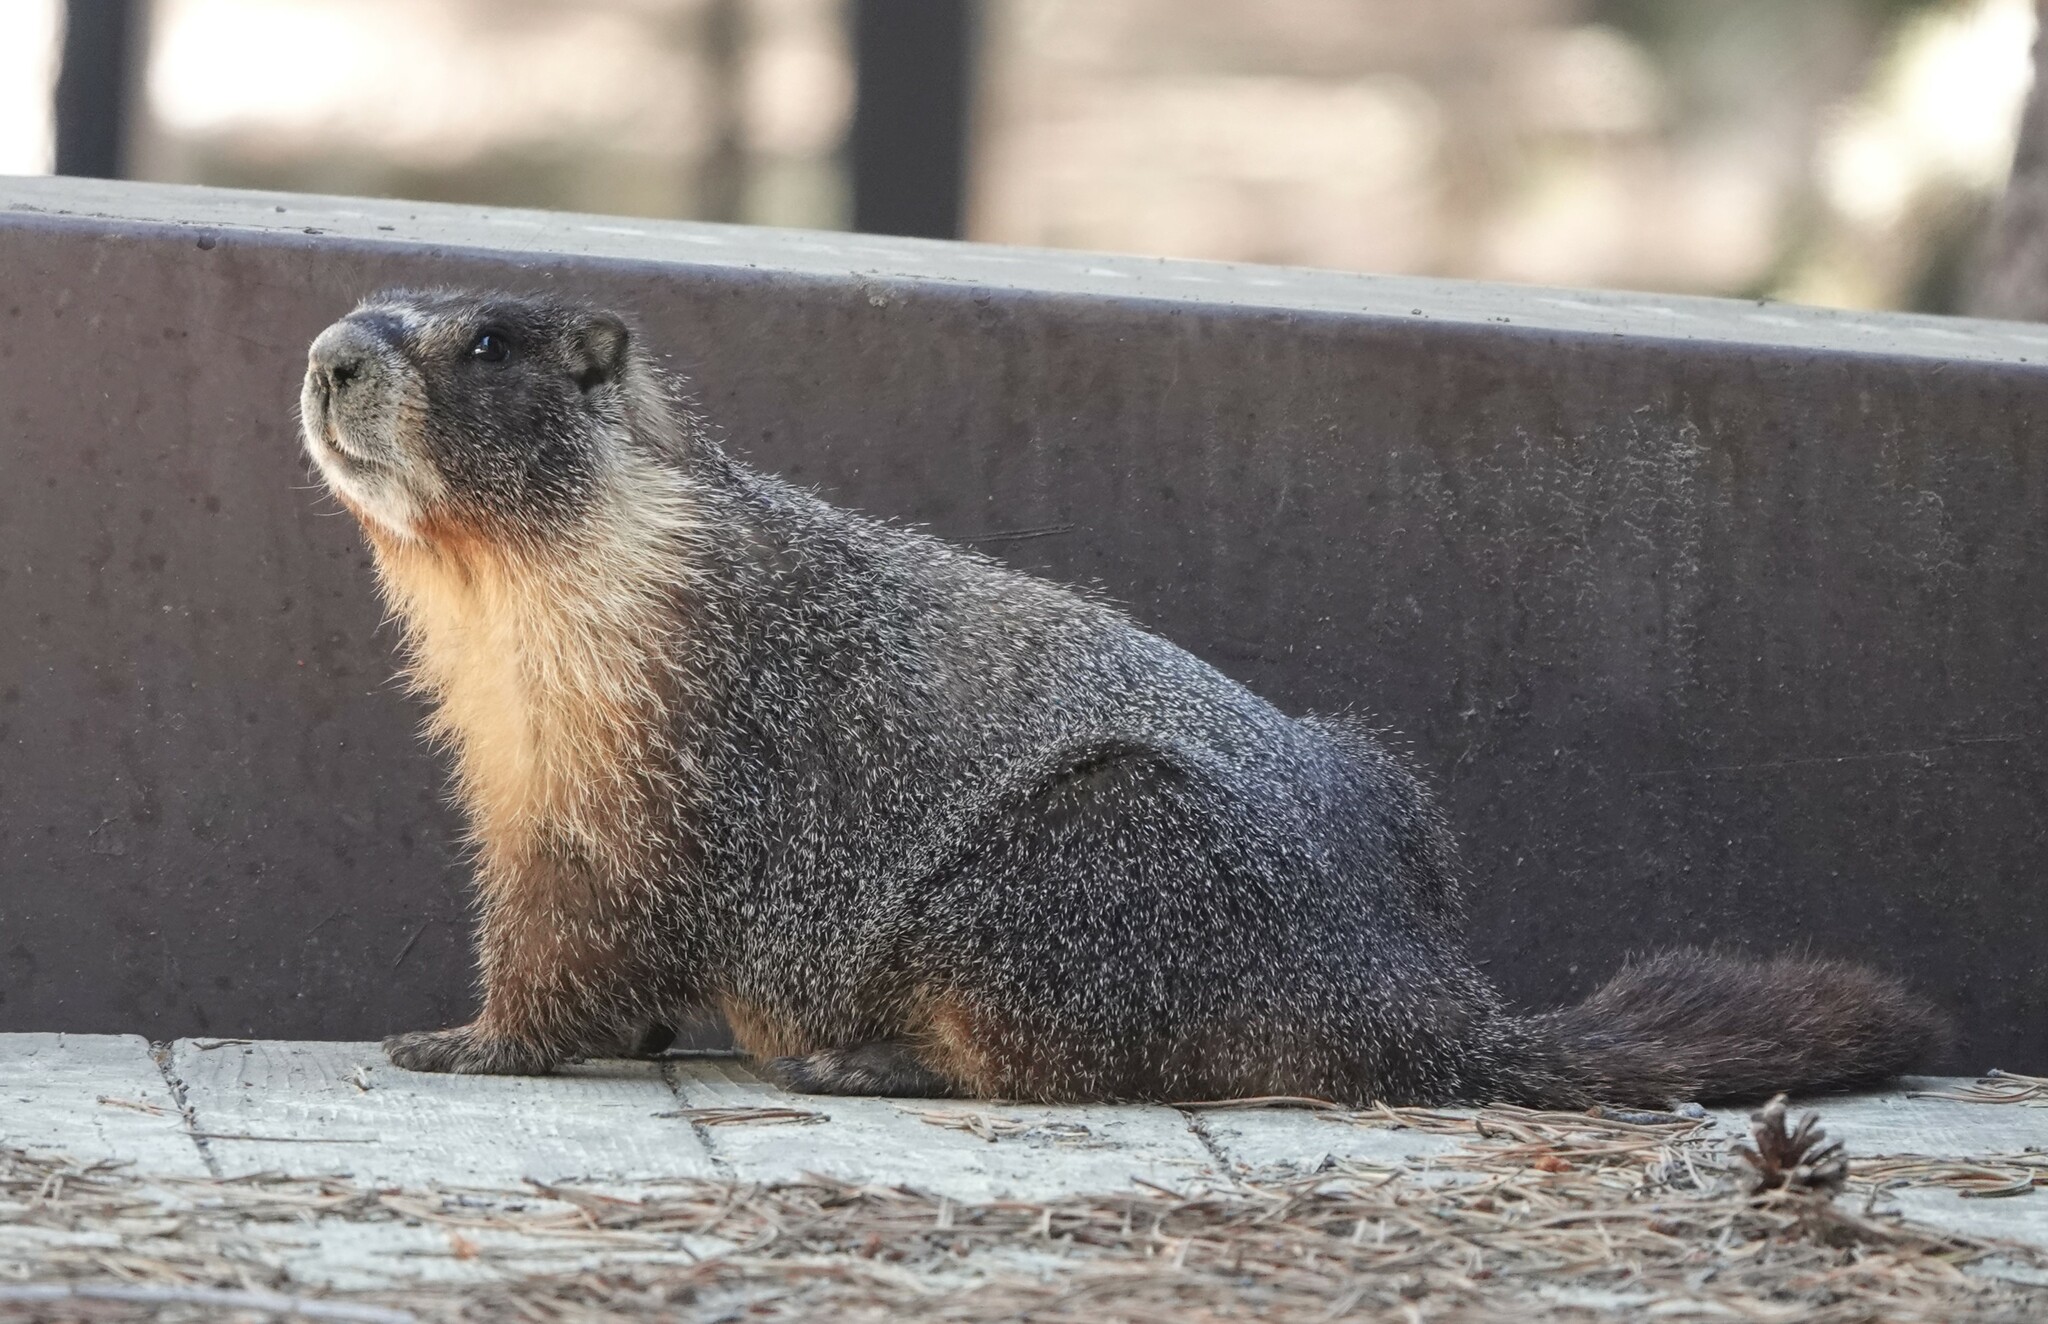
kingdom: Animalia
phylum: Chordata
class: Mammalia
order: Rodentia
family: Sciuridae
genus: Marmota
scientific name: Marmota flaviventris
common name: Yellow-bellied marmot
